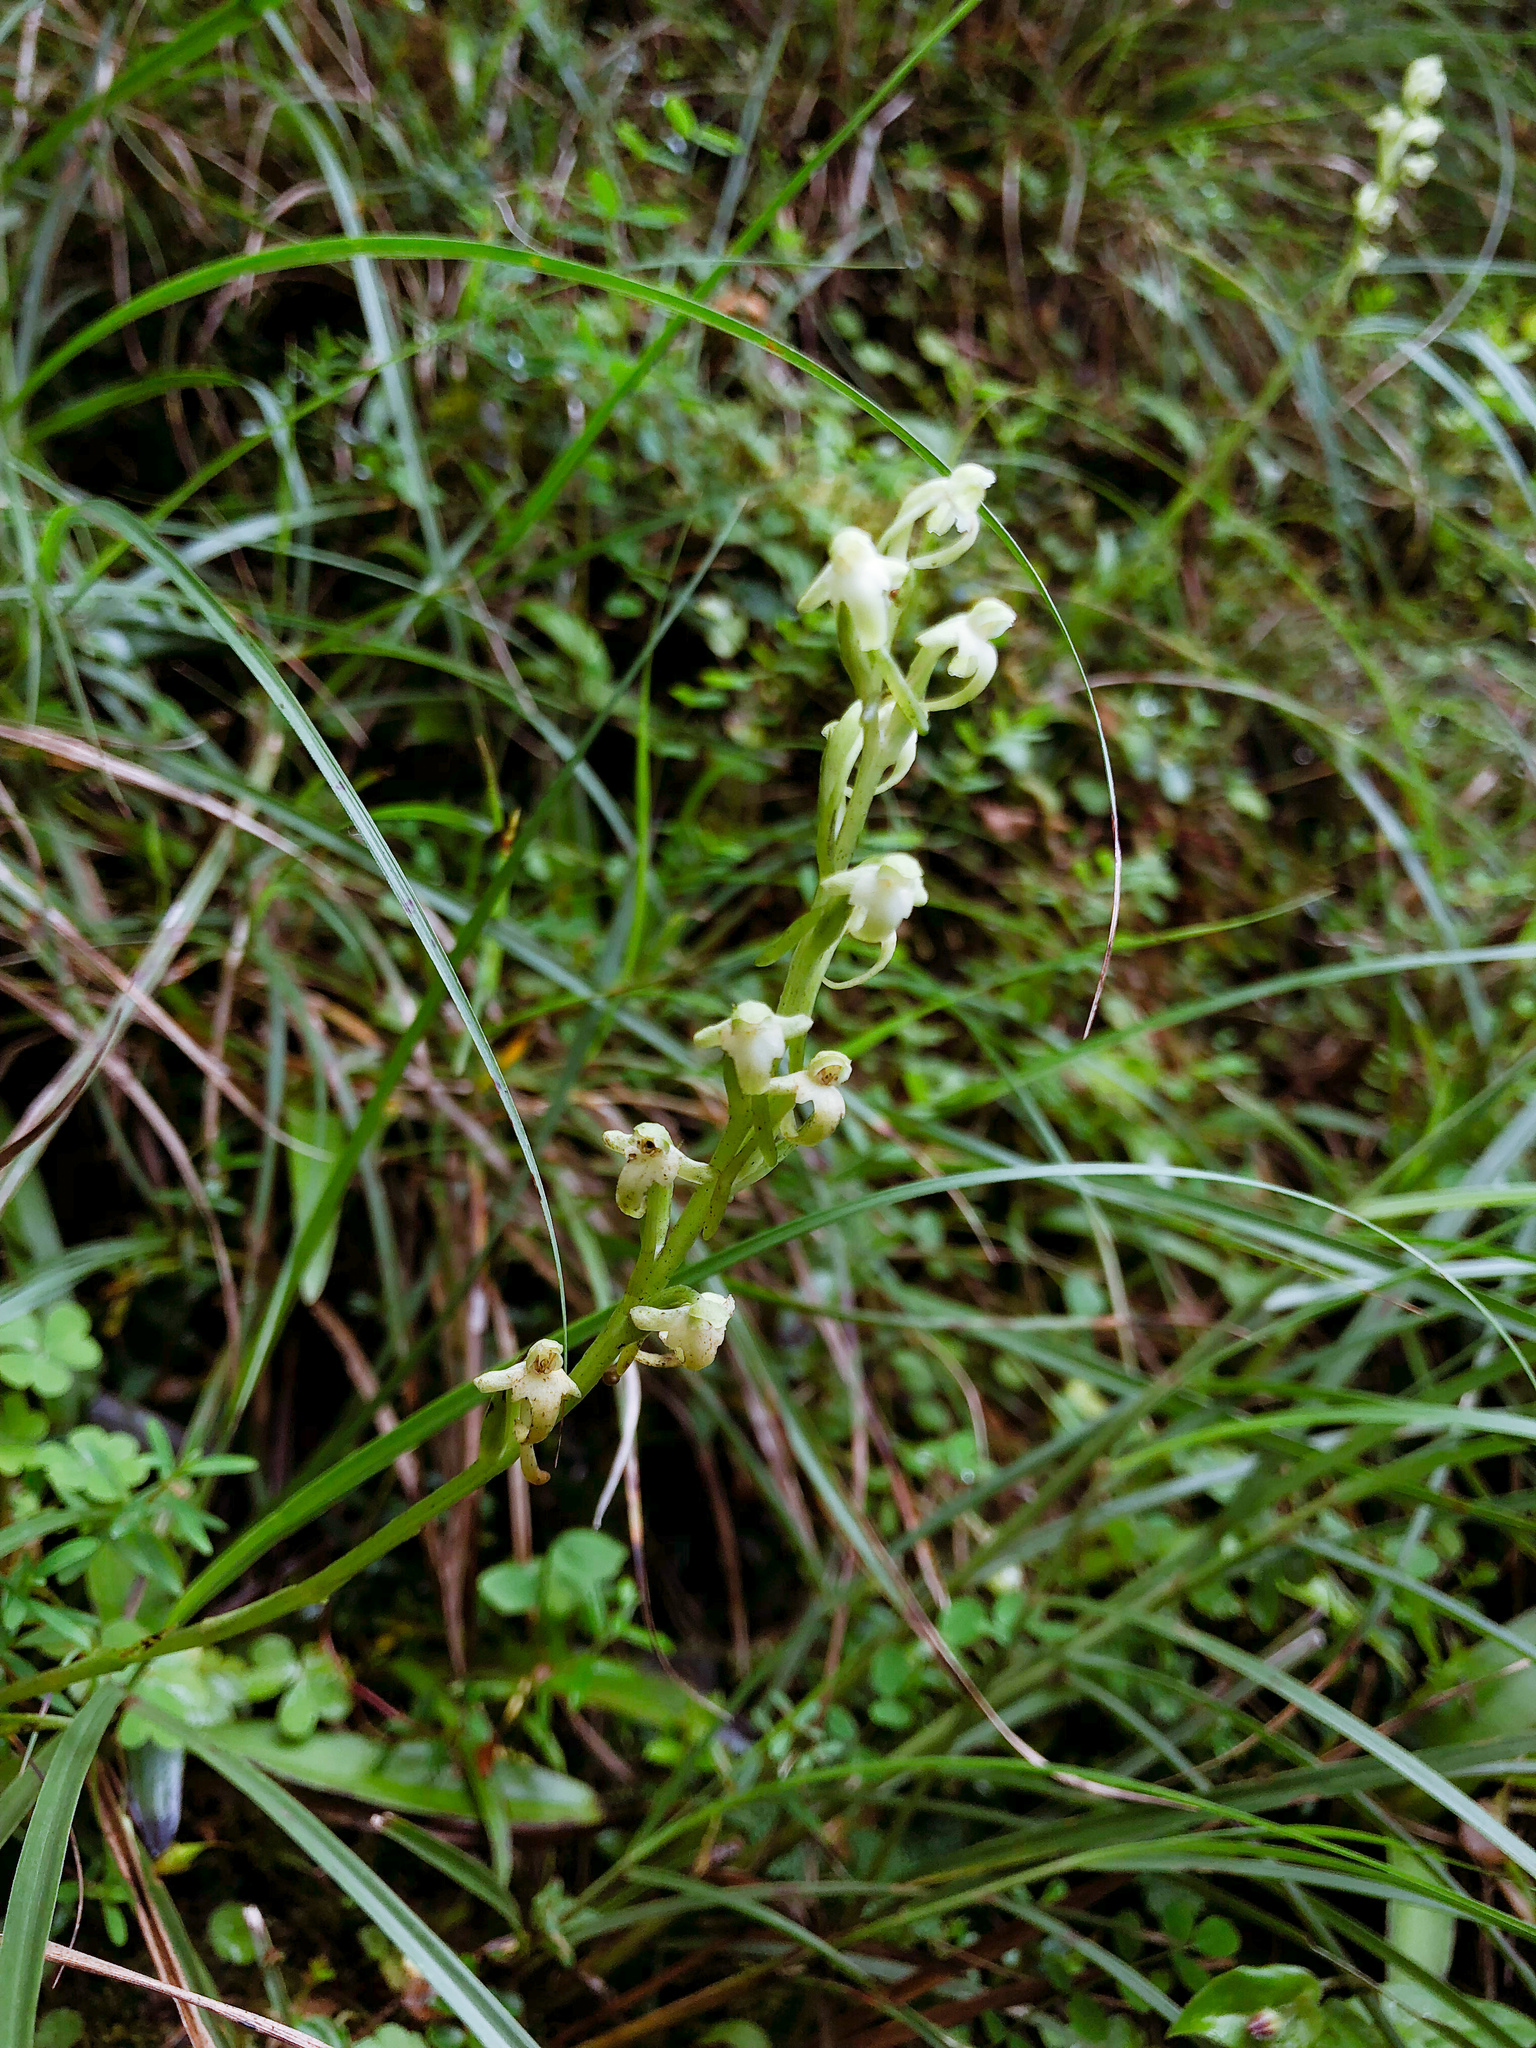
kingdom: Plantae
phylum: Tracheophyta
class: Liliopsida
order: Asparagales
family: Orchidaceae
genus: Platanthera
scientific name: Platanthera devolii
